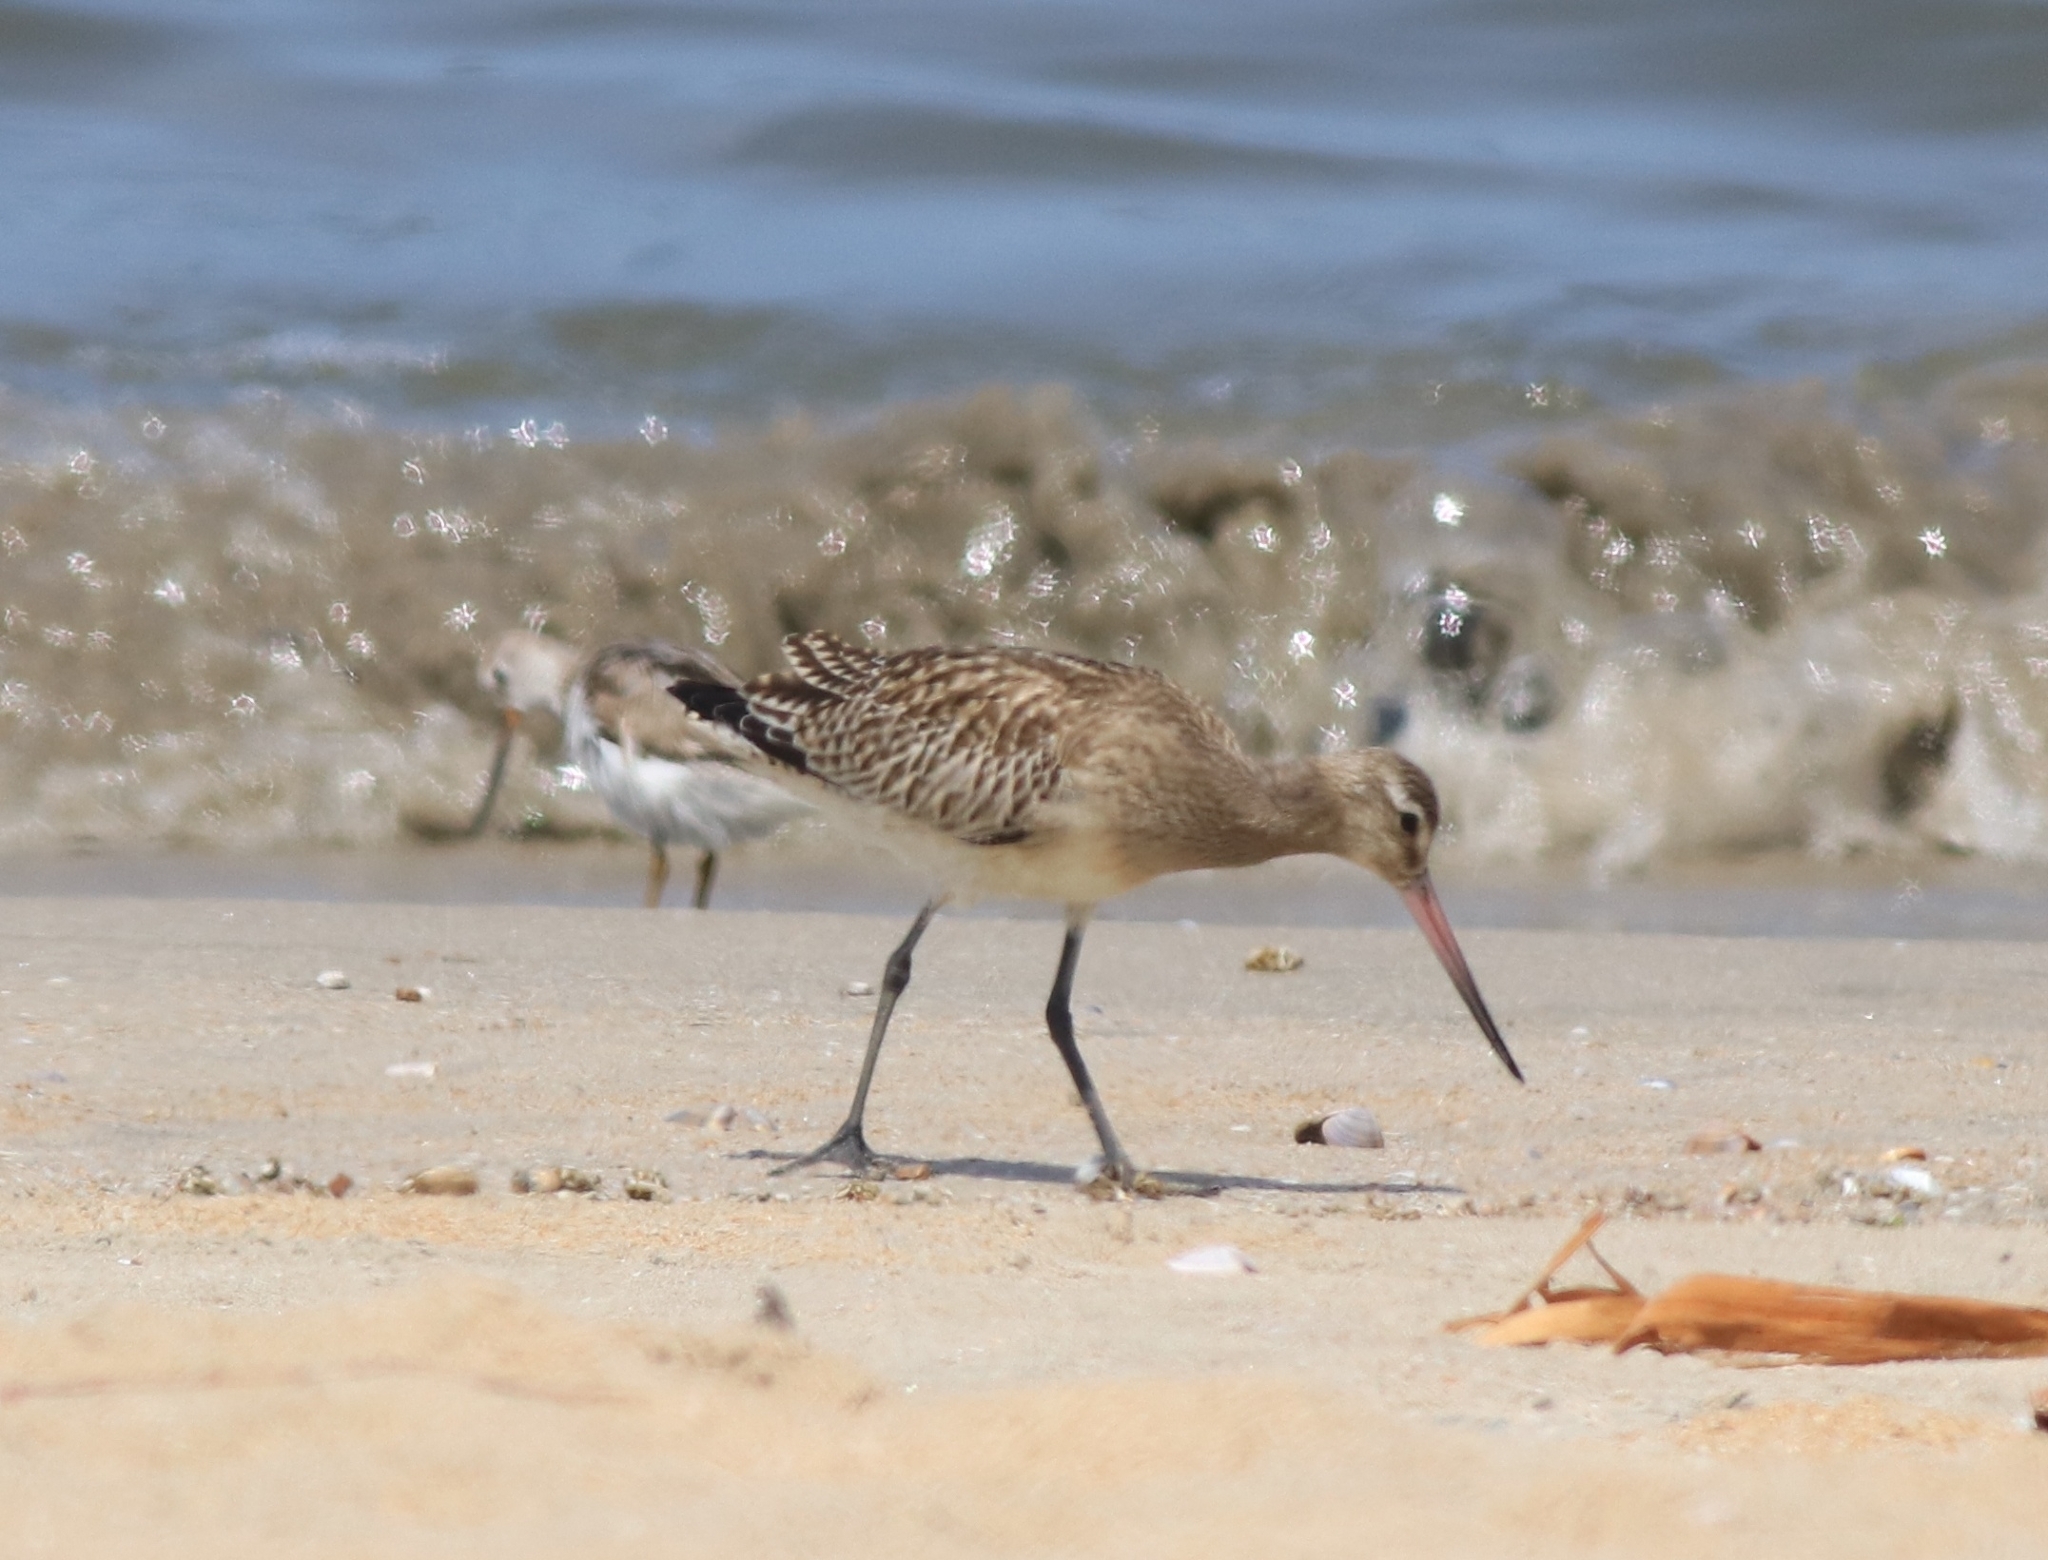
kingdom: Animalia
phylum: Chordata
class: Aves
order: Charadriiformes
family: Scolopacidae
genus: Limosa
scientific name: Limosa lapponica
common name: Bar-tailed godwit
